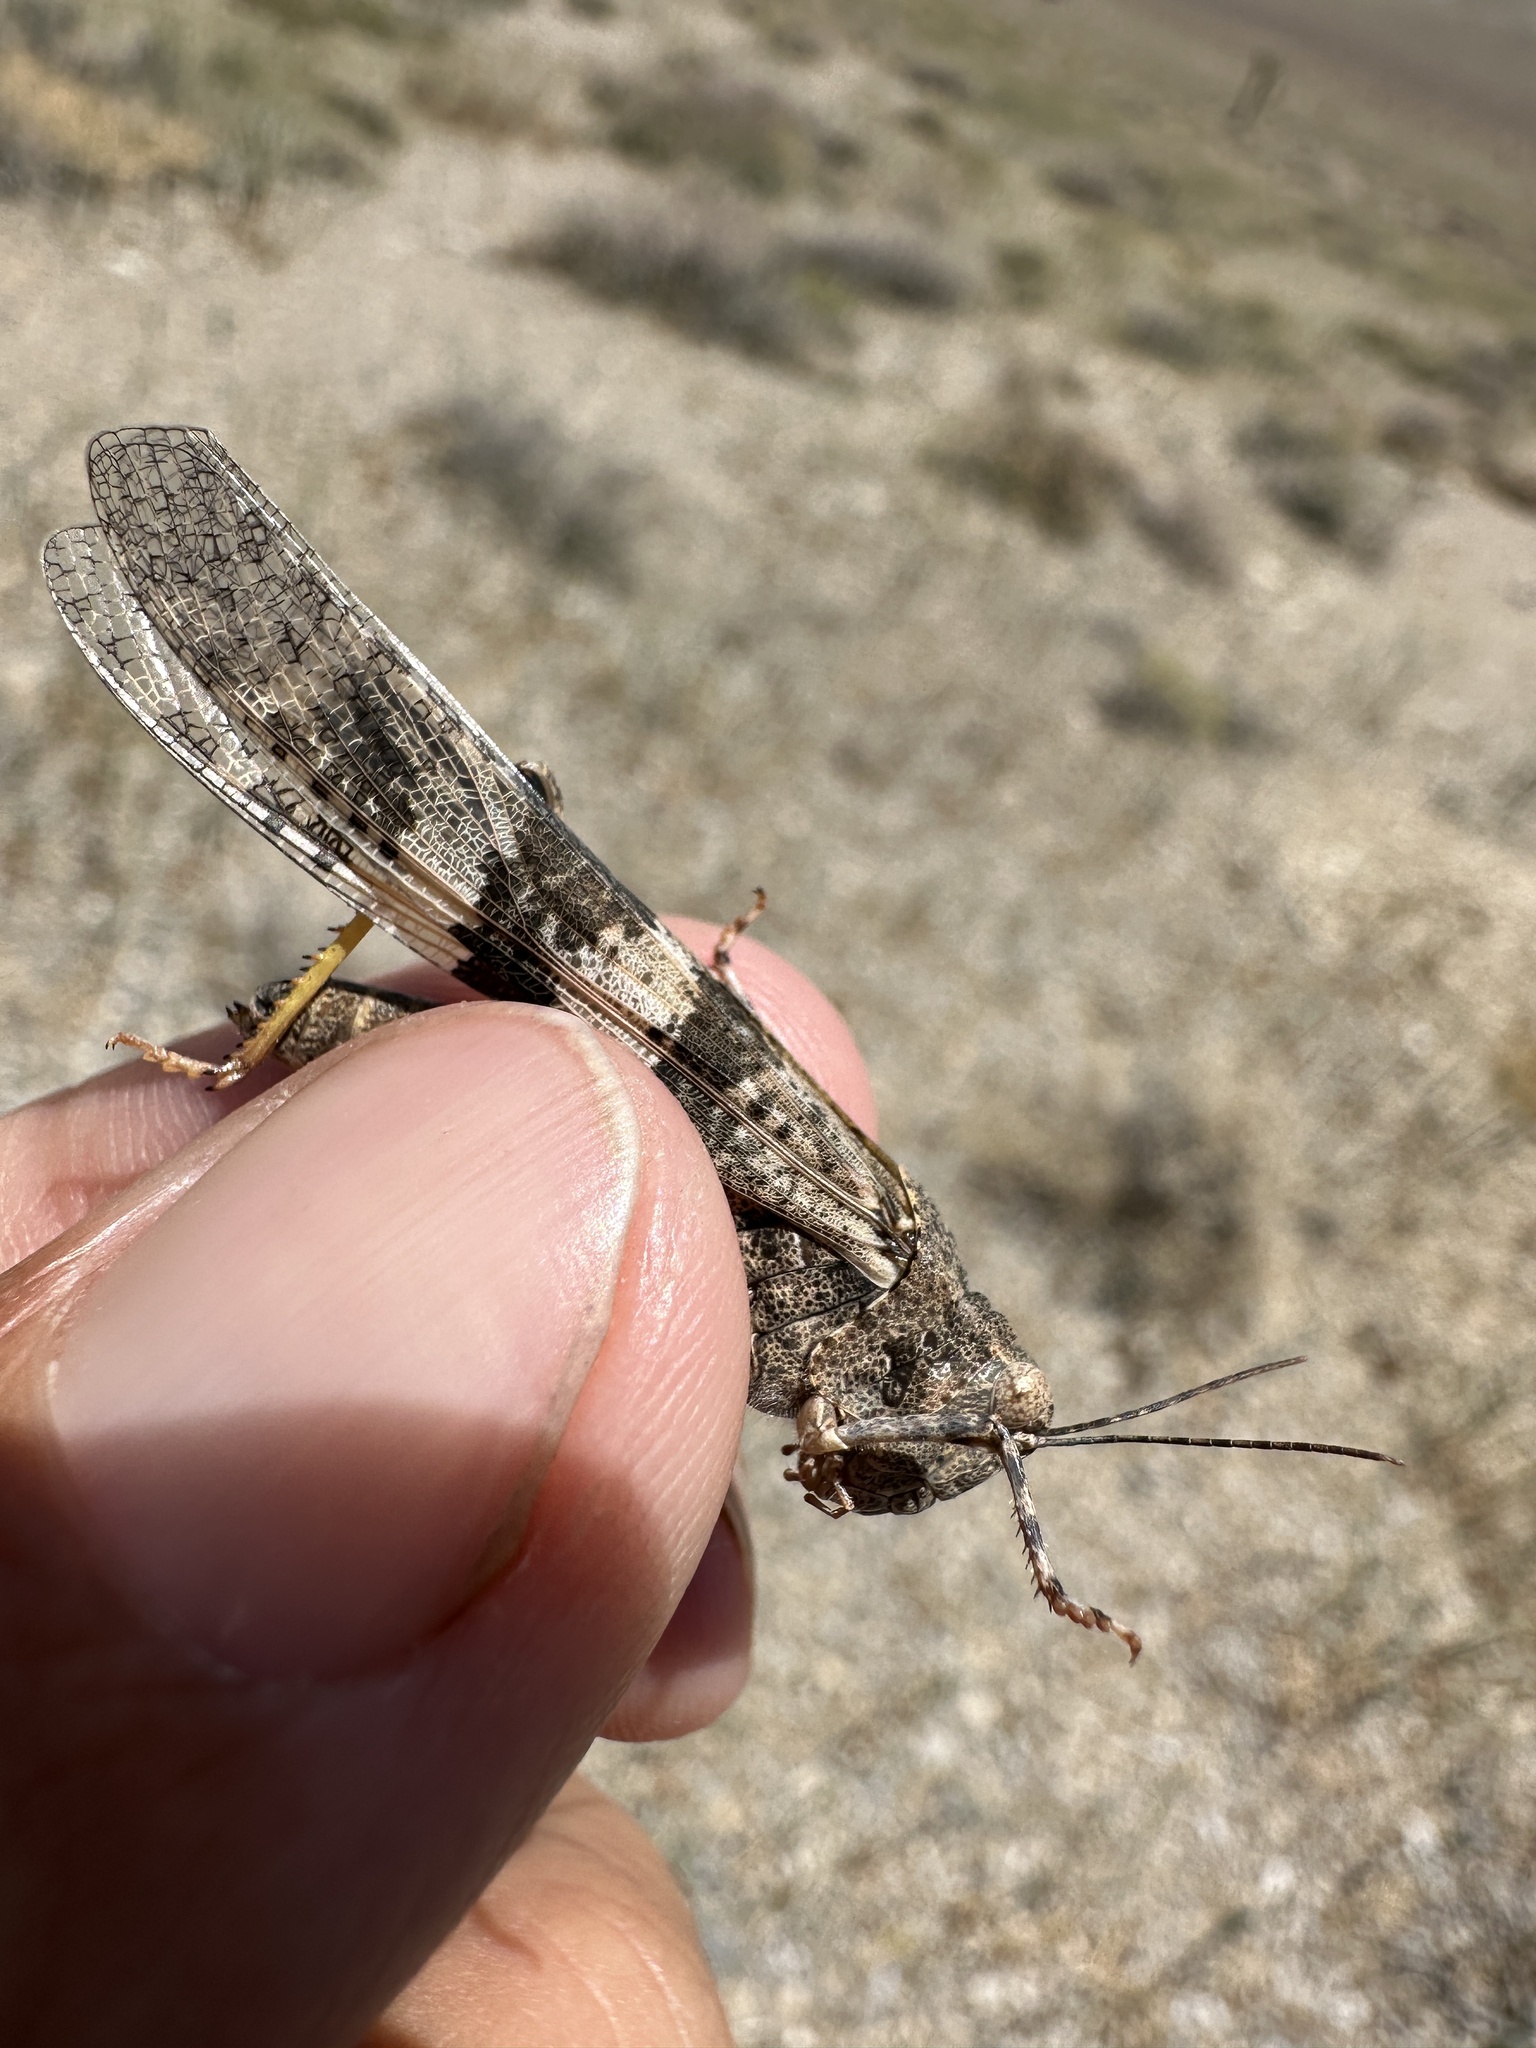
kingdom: Animalia
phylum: Arthropoda
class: Insecta
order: Orthoptera
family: Acrididae
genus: Trimerotropis
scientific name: Trimerotropis pallidipennis
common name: Pallid-winged grasshopper
